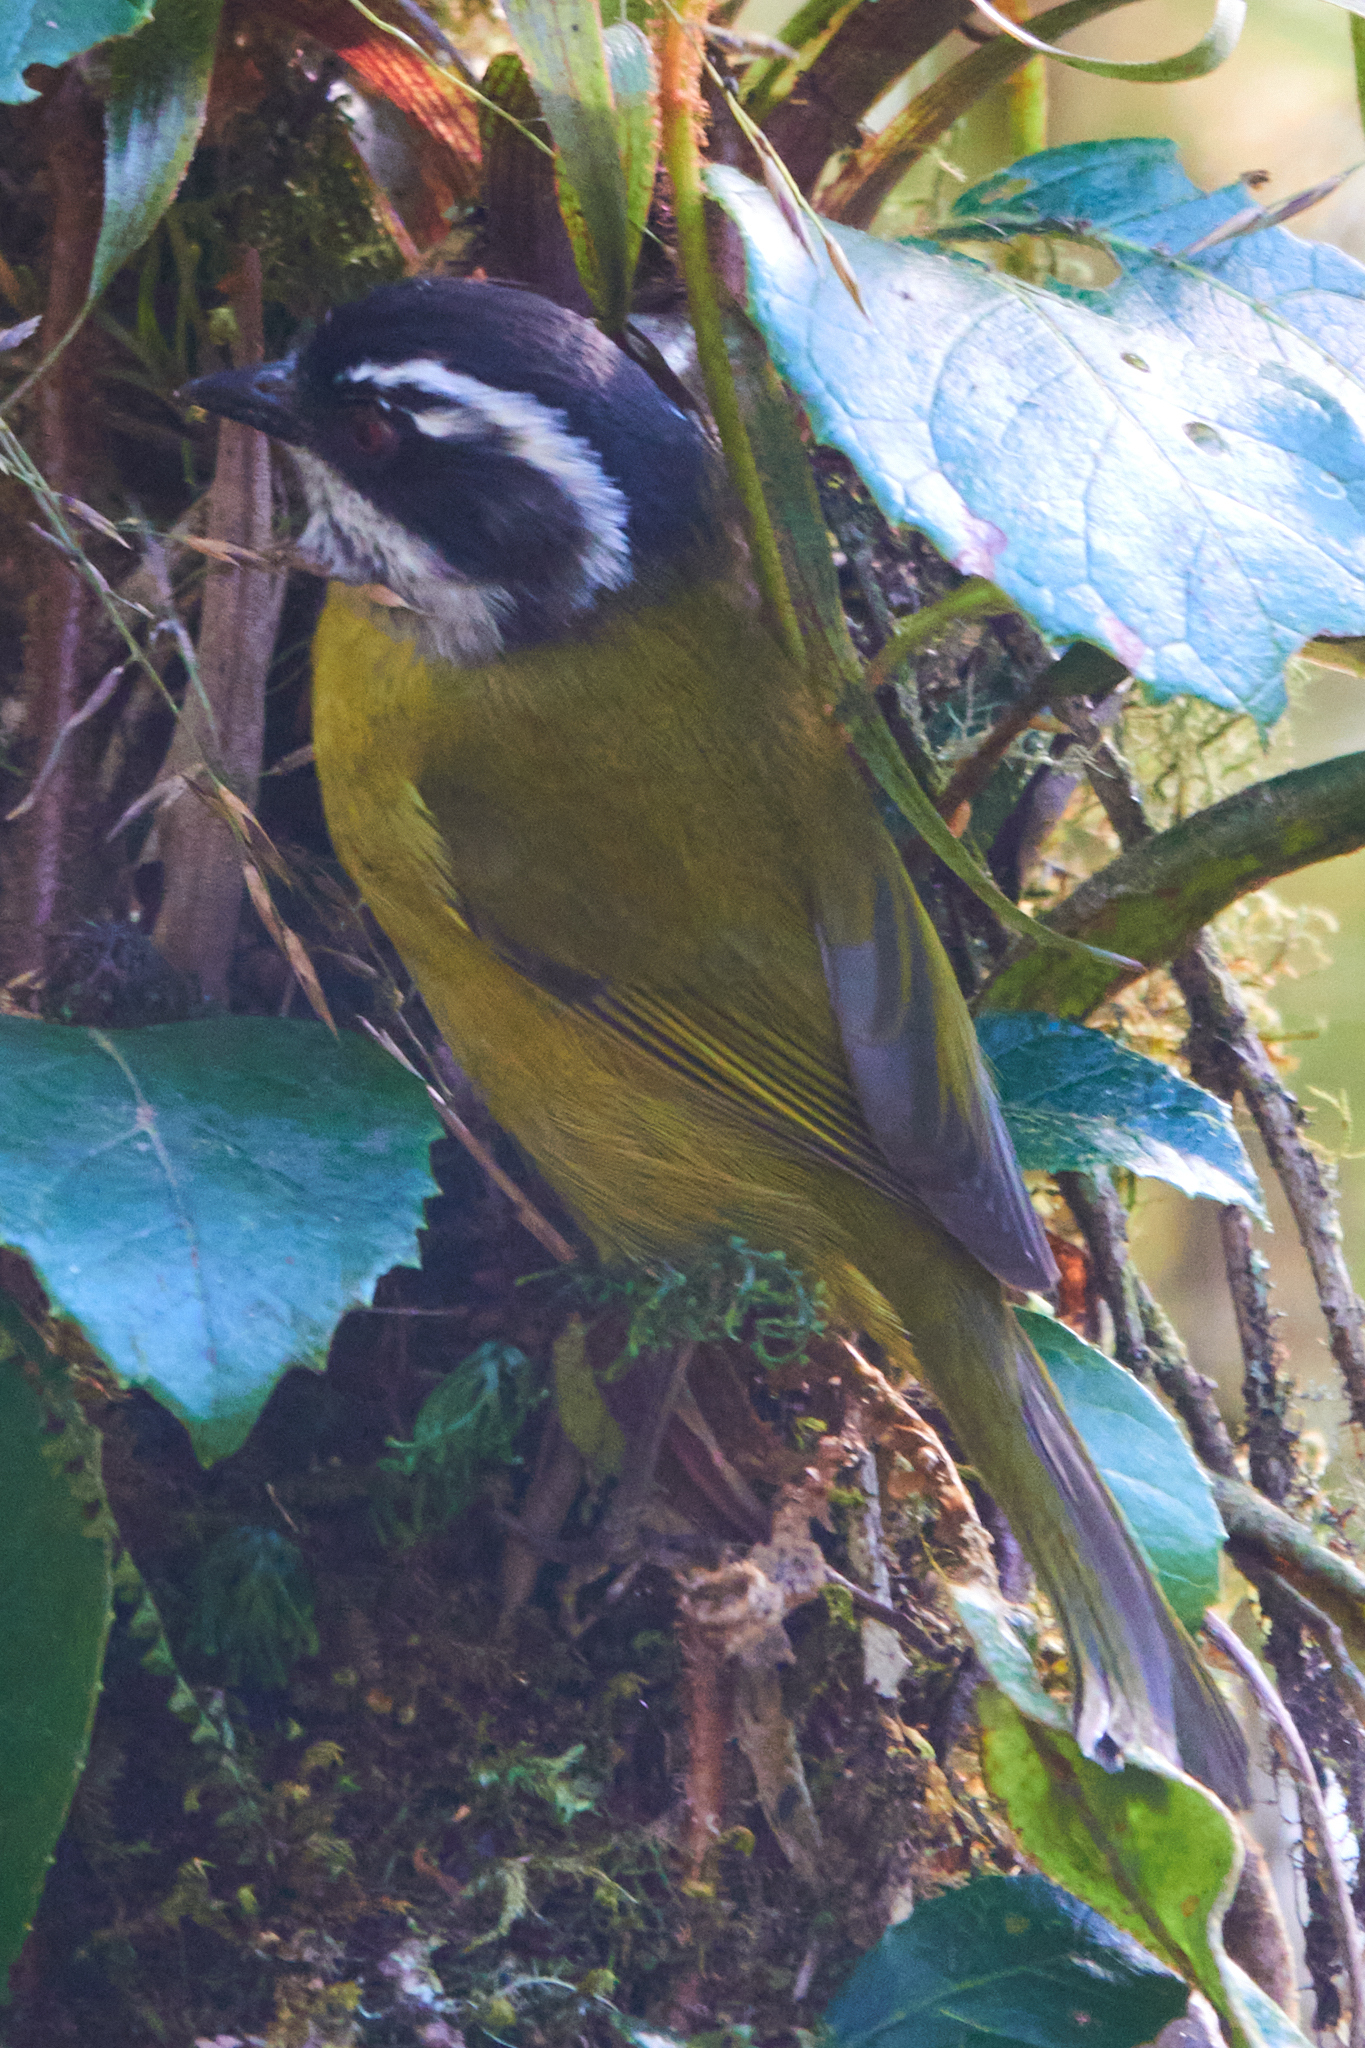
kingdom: Animalia
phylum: Chordata
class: Aves
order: Passeriformes
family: Passerellidae
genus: Chlorospingus
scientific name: Chlorospingus pileatus
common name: Sooty-capped bush-tanager
